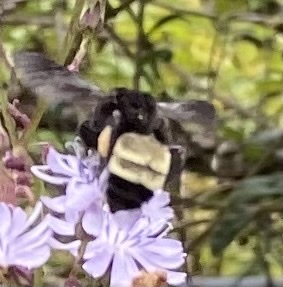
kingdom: Animalia
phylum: Arthropoda
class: Insecta
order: Hymenoptera
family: Apidae
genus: Bombus
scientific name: Bombus pensylvanicus
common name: Bumble bee
